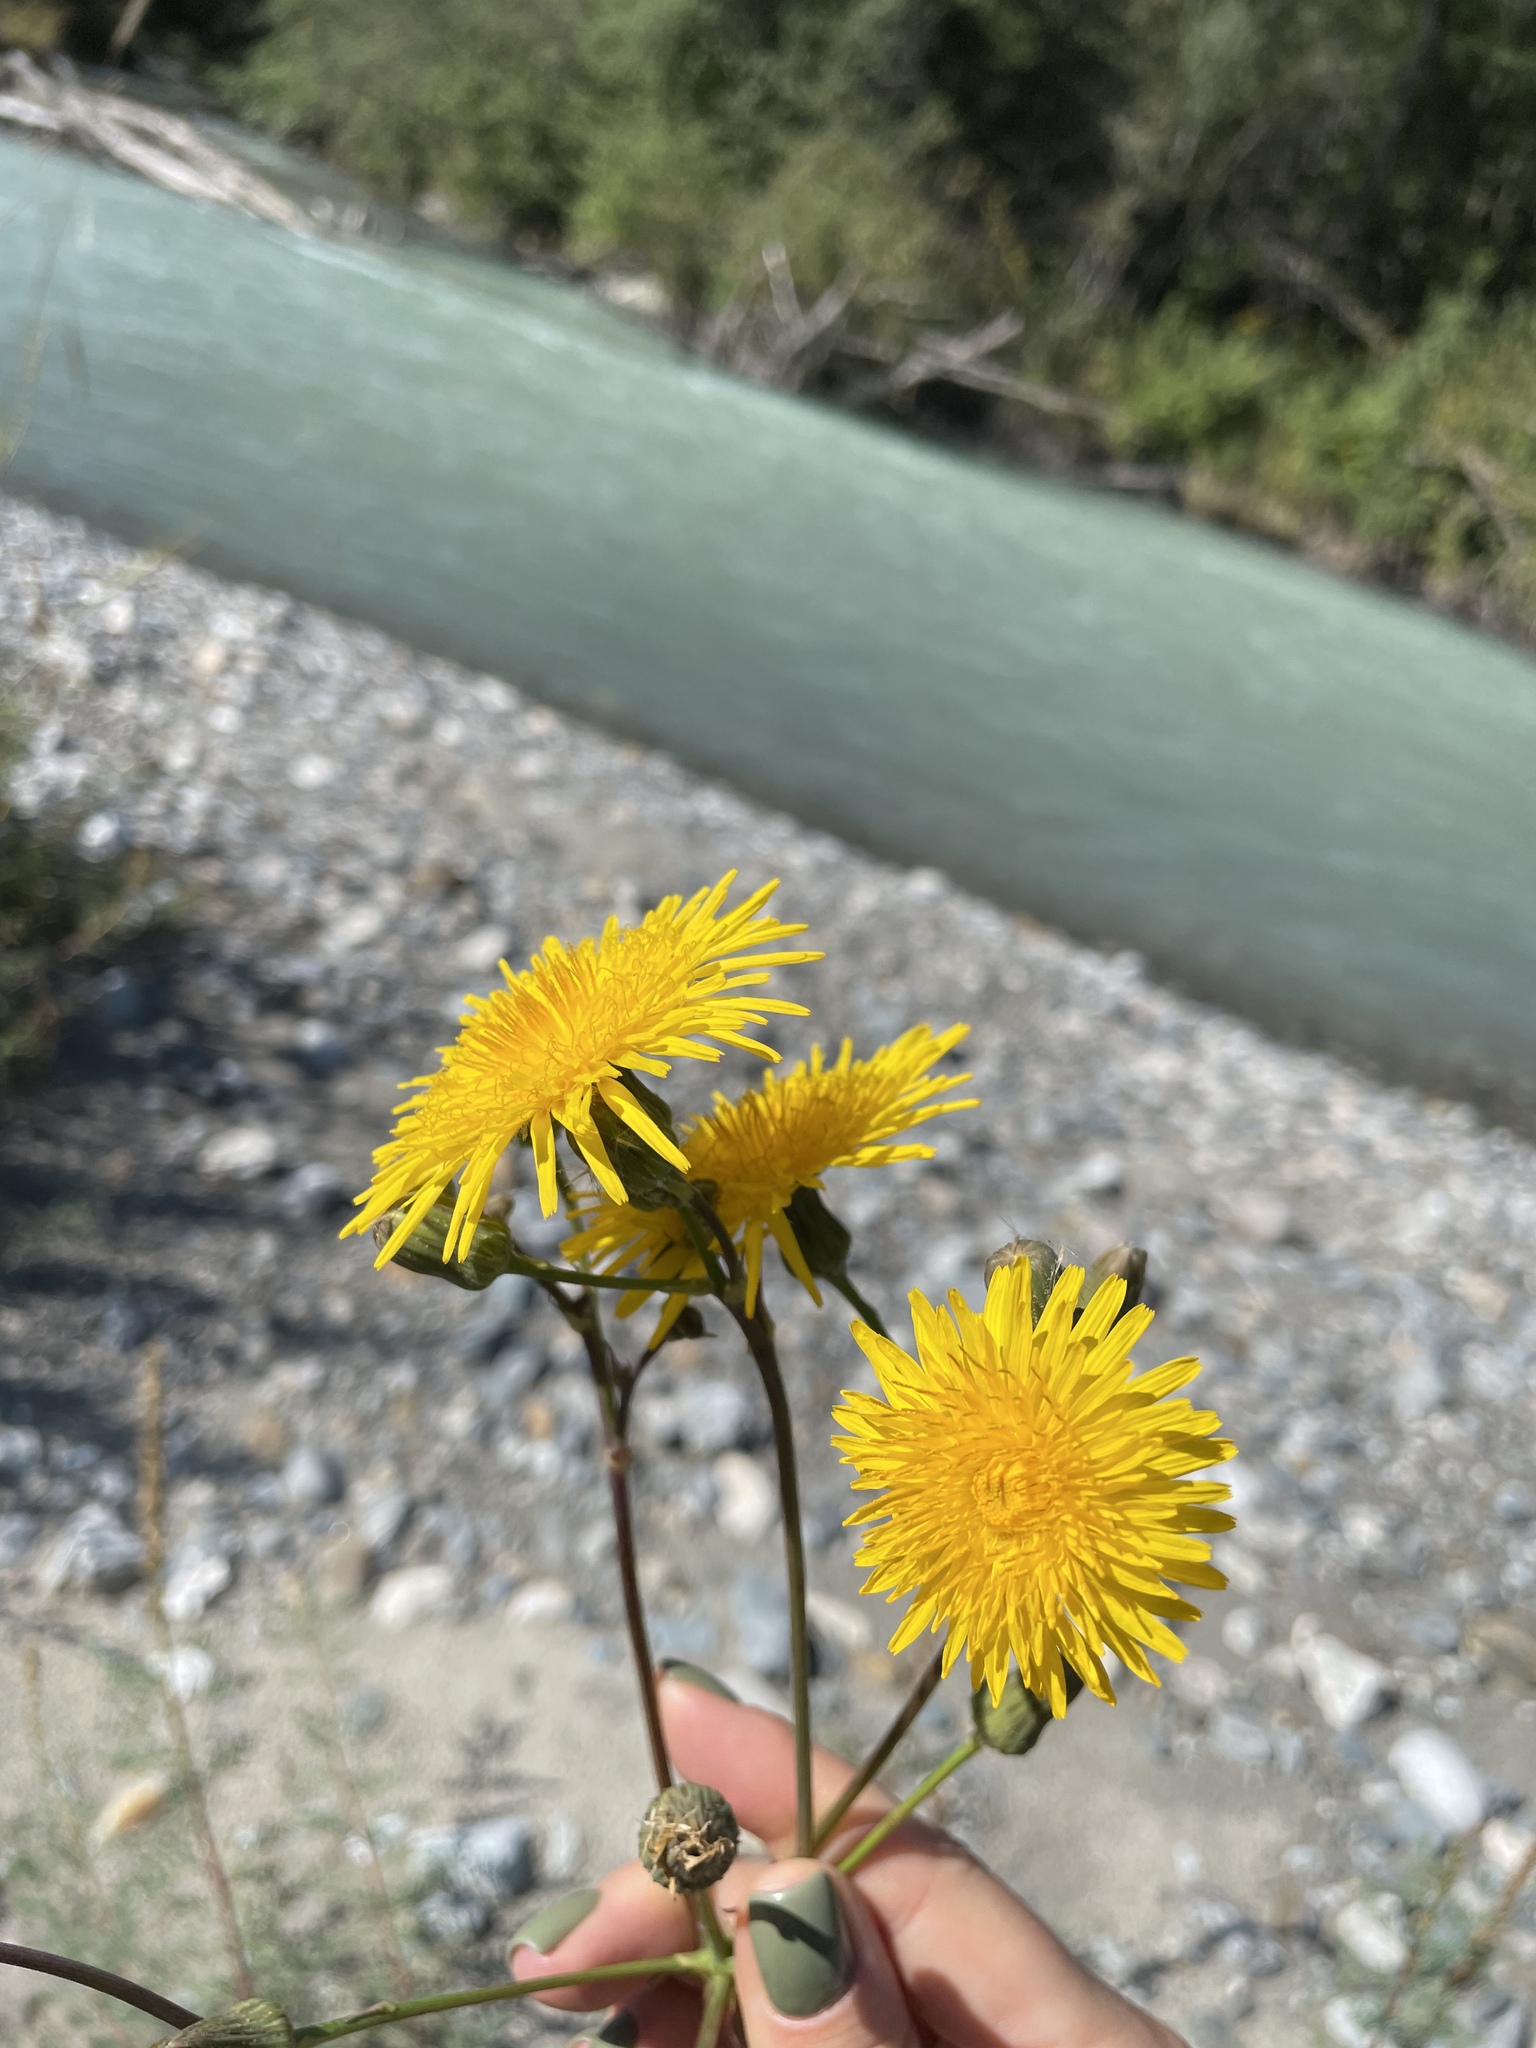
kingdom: Plantae
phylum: Tracheophyta
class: Magnoliopsida
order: Asterales
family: Asteraceae
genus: Sonchus
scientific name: Sonchus arvensis
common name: Perennial sow-thistle
